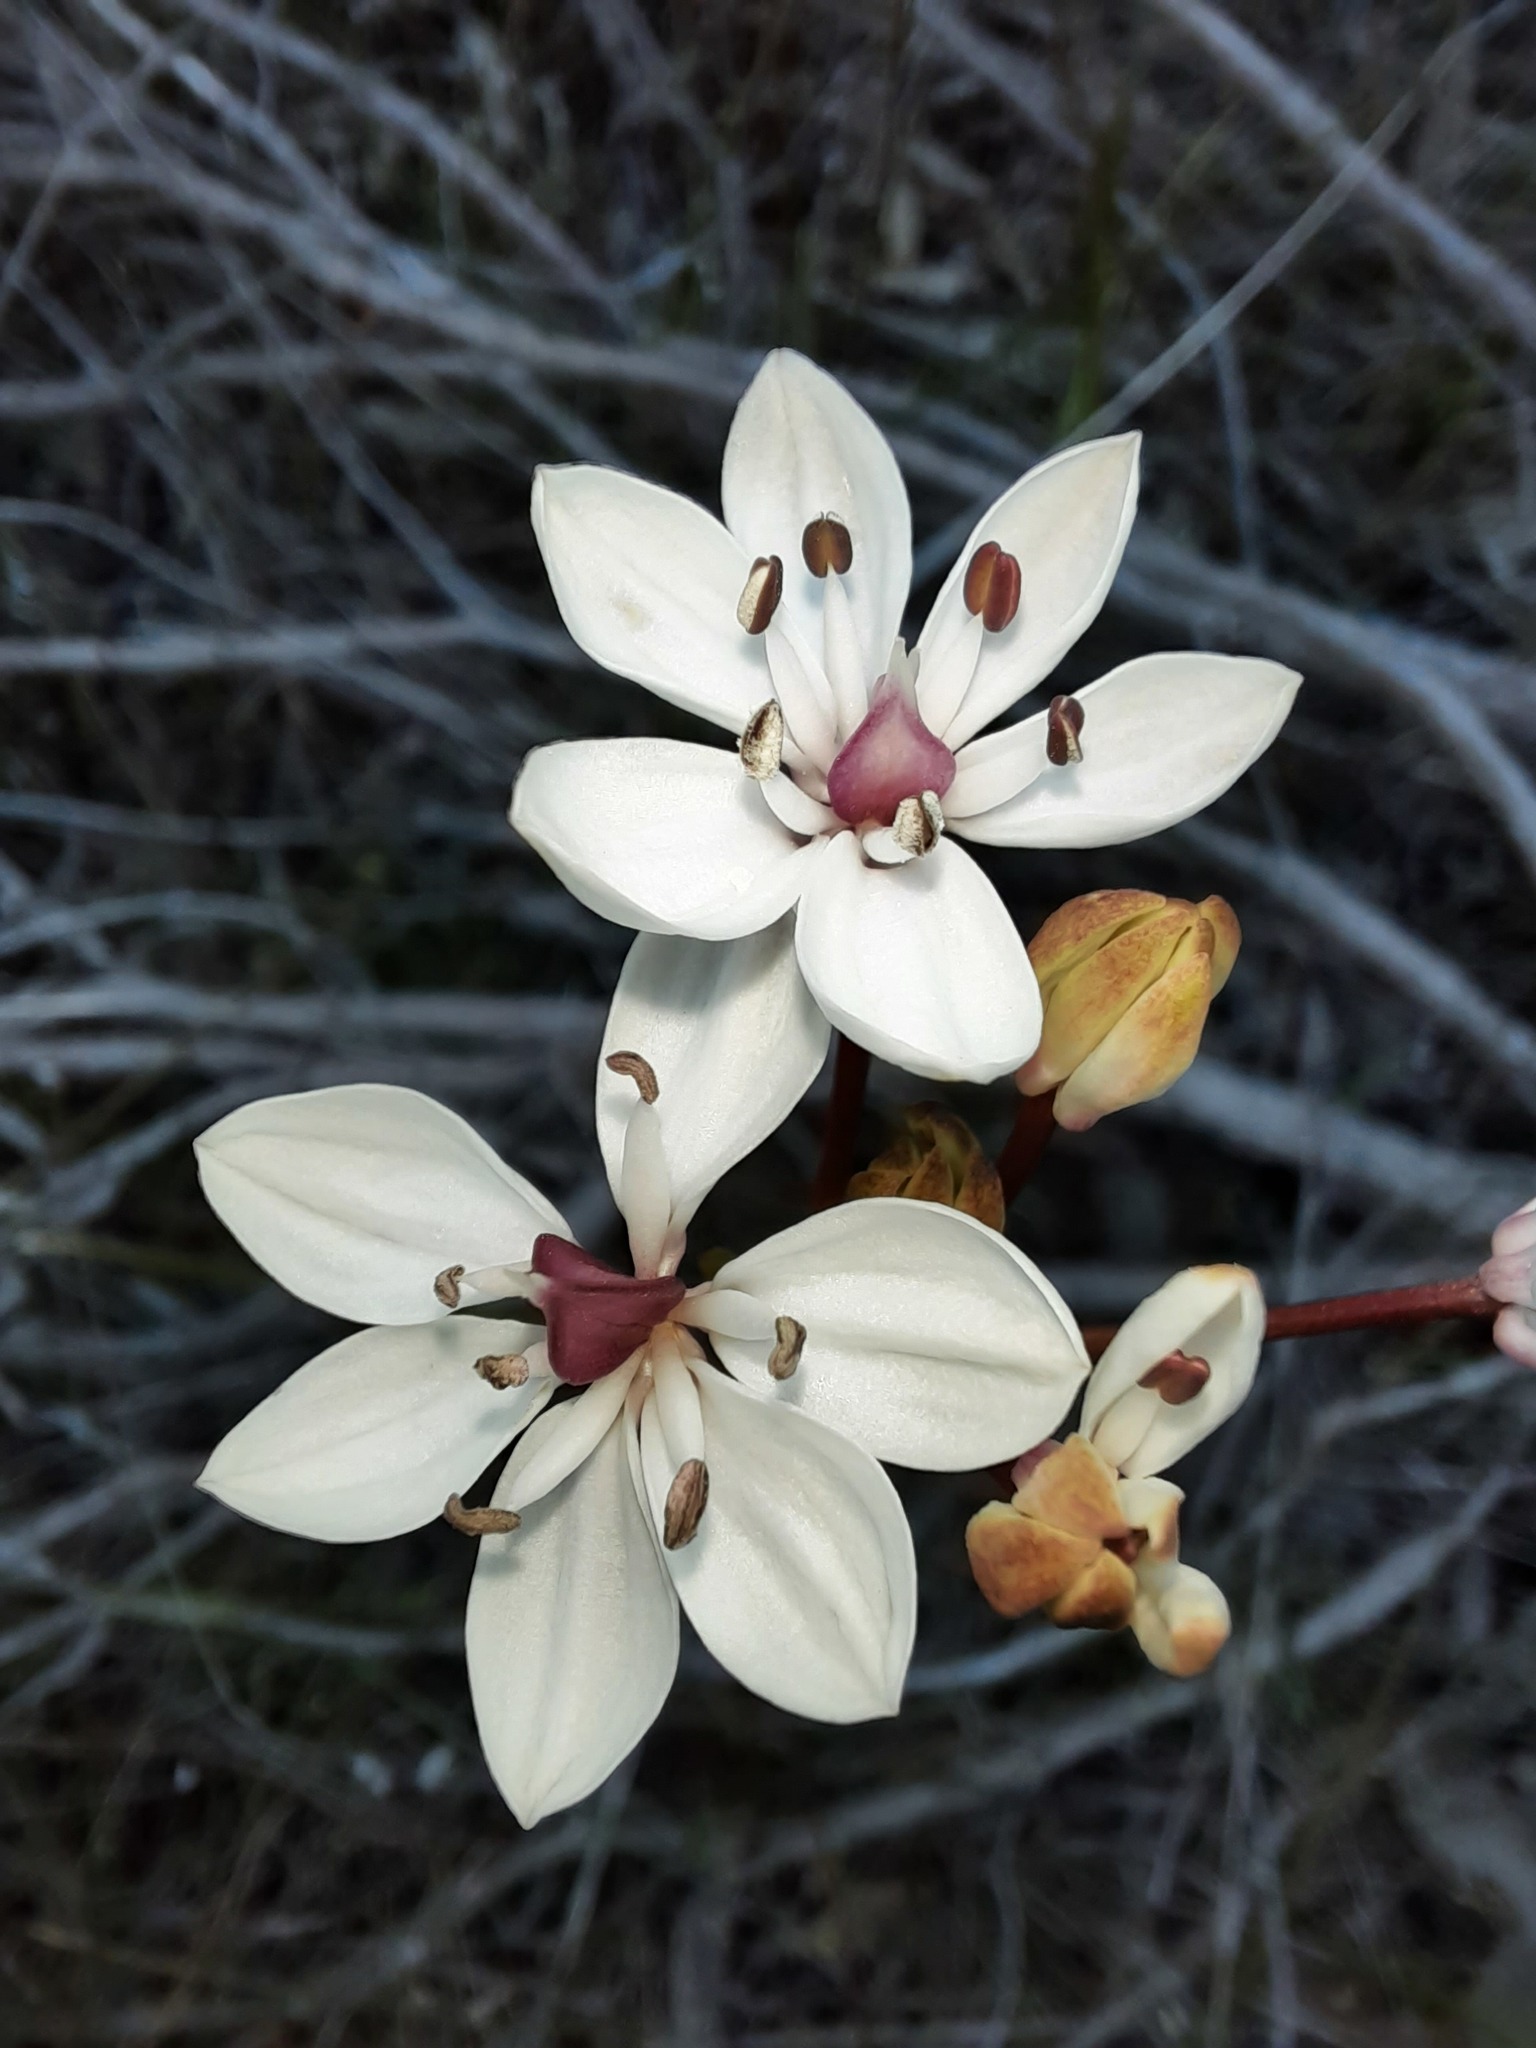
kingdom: Plantae
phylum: Tracheophyta
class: Liliopsida
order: Liliales
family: Colchicaceae
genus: Burchardia
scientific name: Burchardia umbellata
